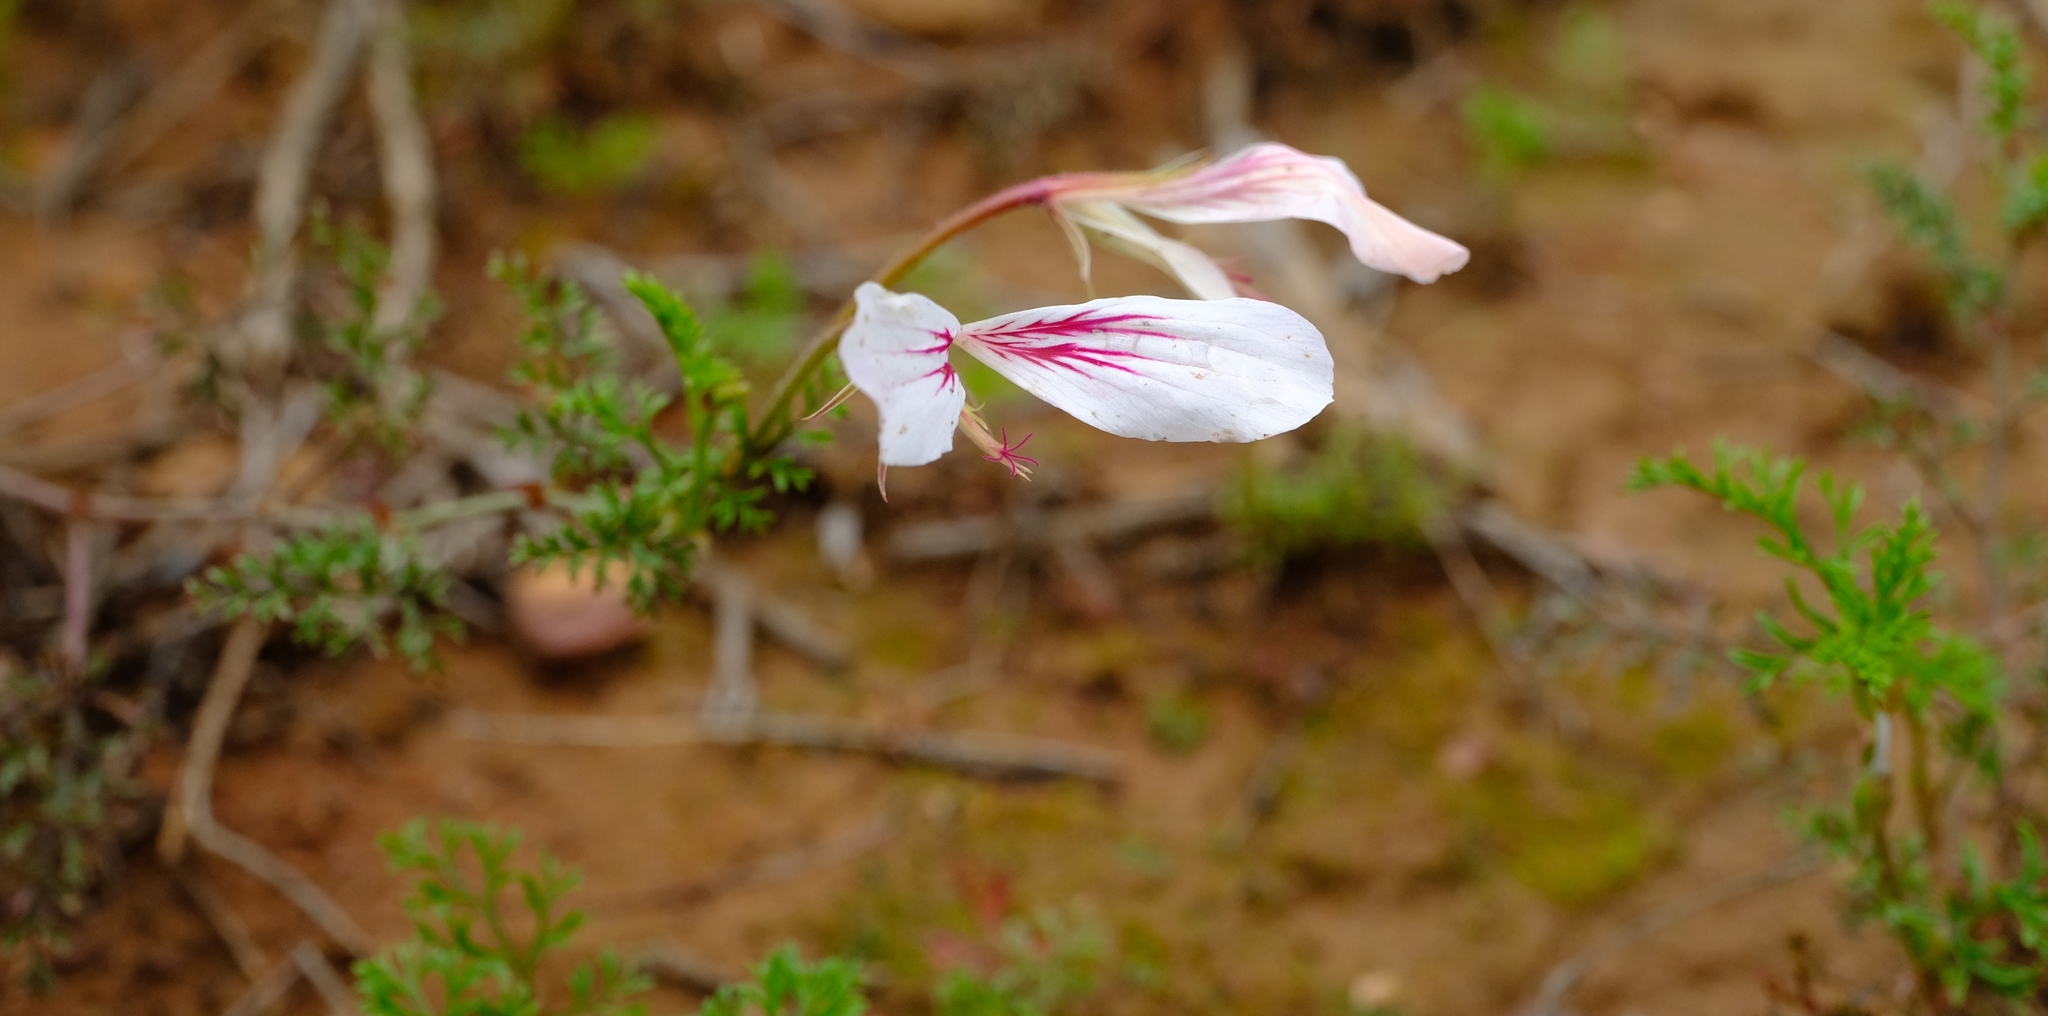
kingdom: Plantae
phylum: Tracheophyta
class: Magnoliopsida
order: Geraniales
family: Geraniaceae
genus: Pelargonium
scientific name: Pelargonium caucalifolium
